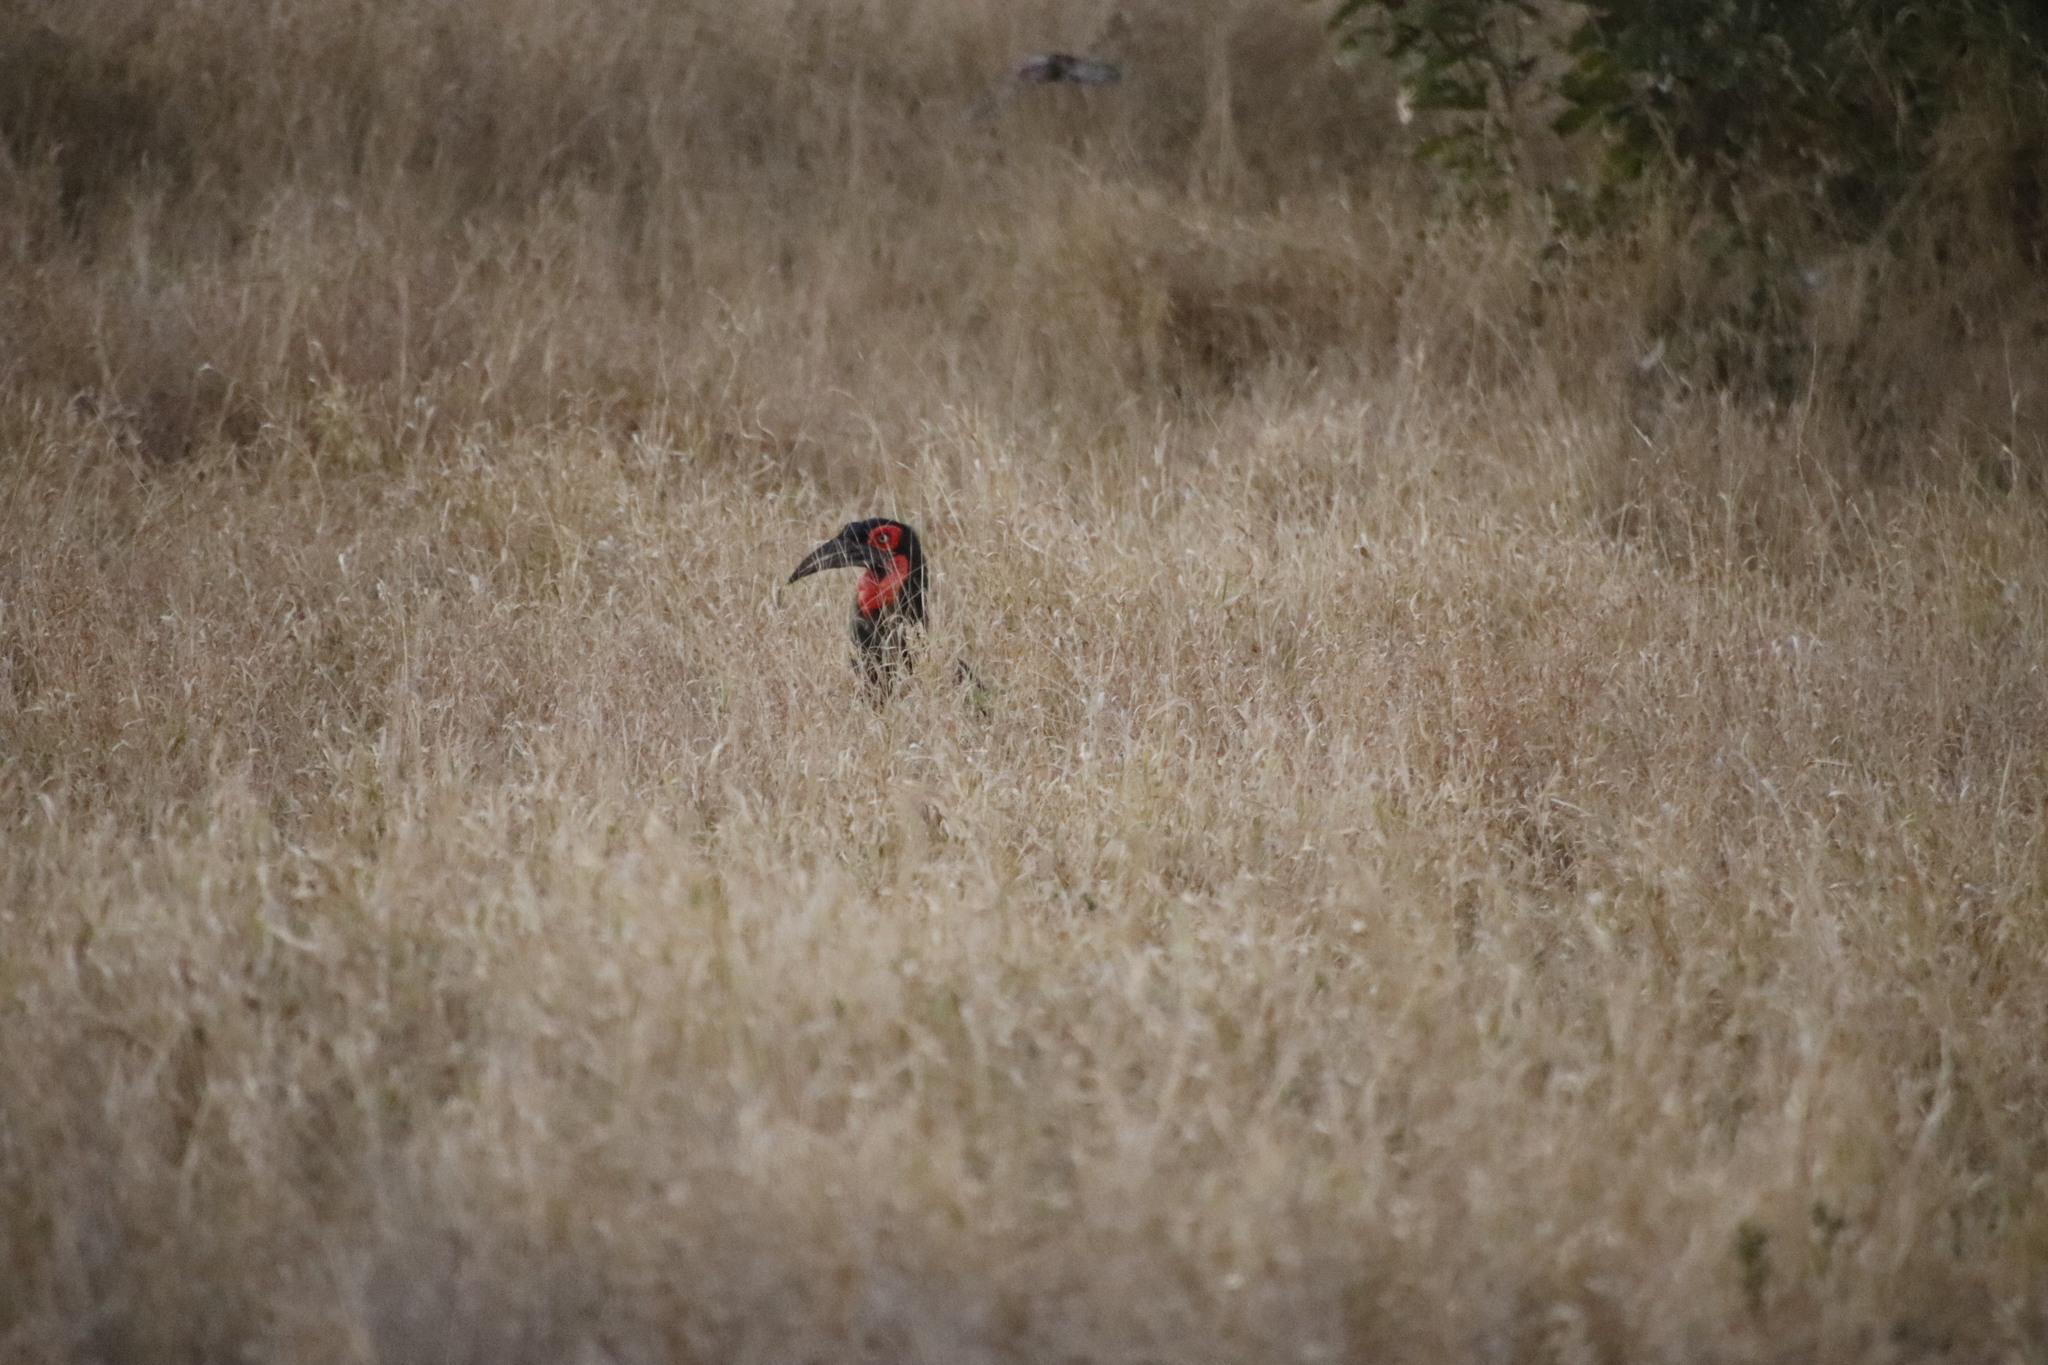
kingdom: Animalia
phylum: Chordata
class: Aves
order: Bucerotiformes
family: Bucorvidae
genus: Bucorvus
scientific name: Bucorvus leadbeateri
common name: Southern ground-hornbill
